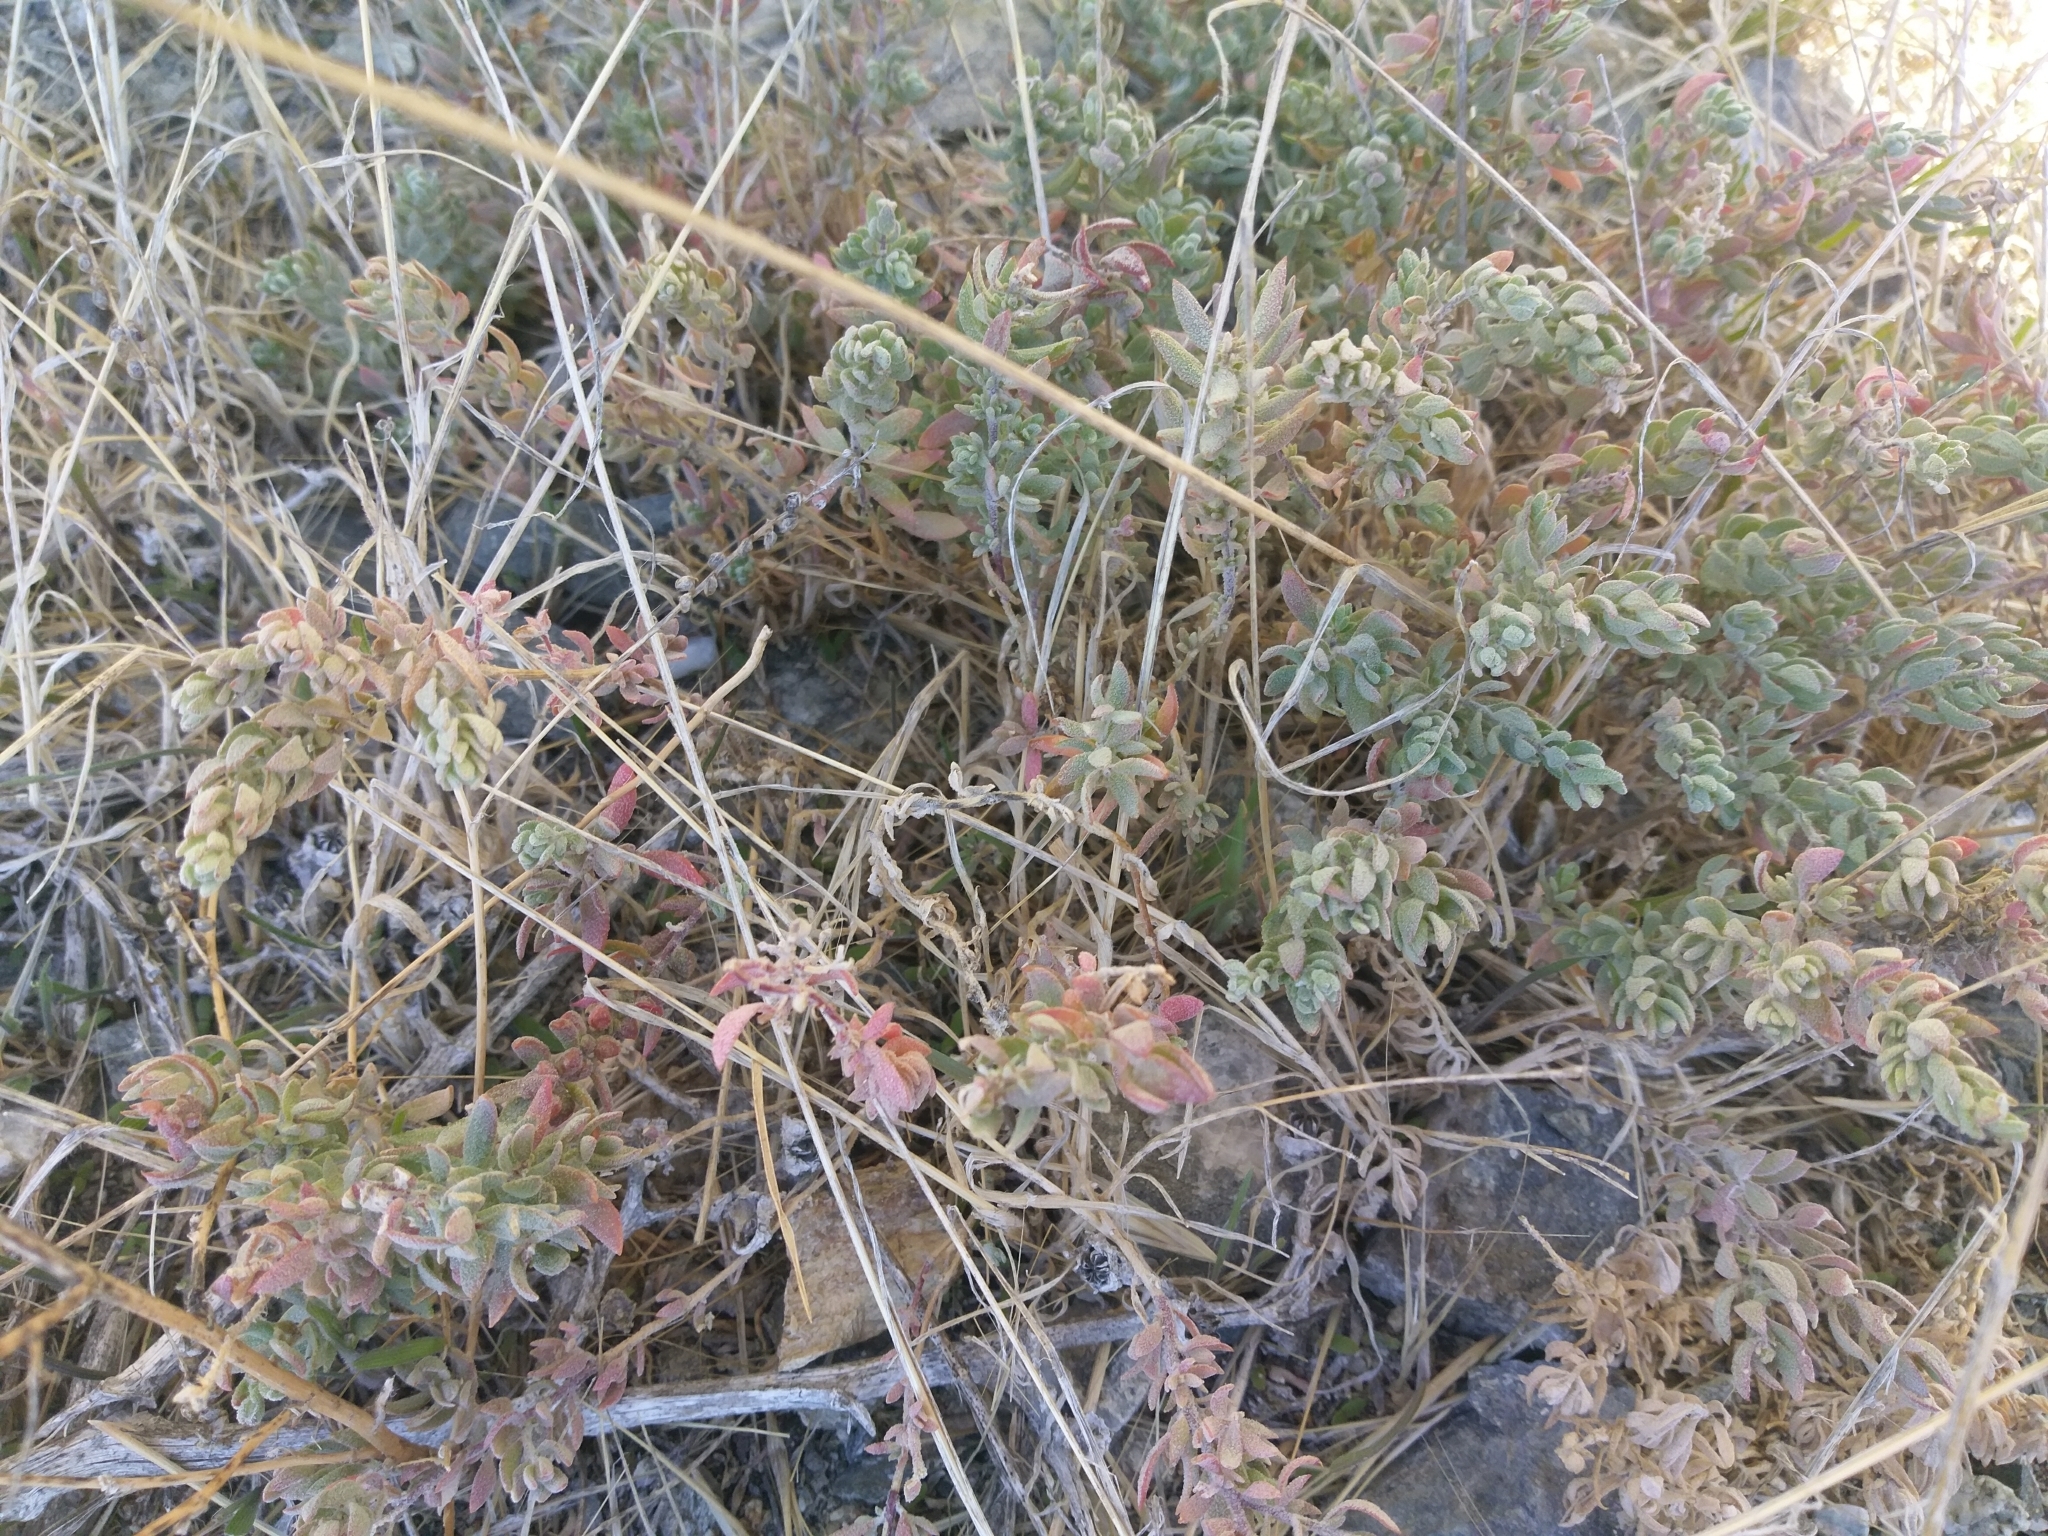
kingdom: Plantae
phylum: Tracheophyta
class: Magnoliopsida
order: Caryophyllales
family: Amaranthaceae
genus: Extriplex
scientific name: Extriplex californica
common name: California saltbush
